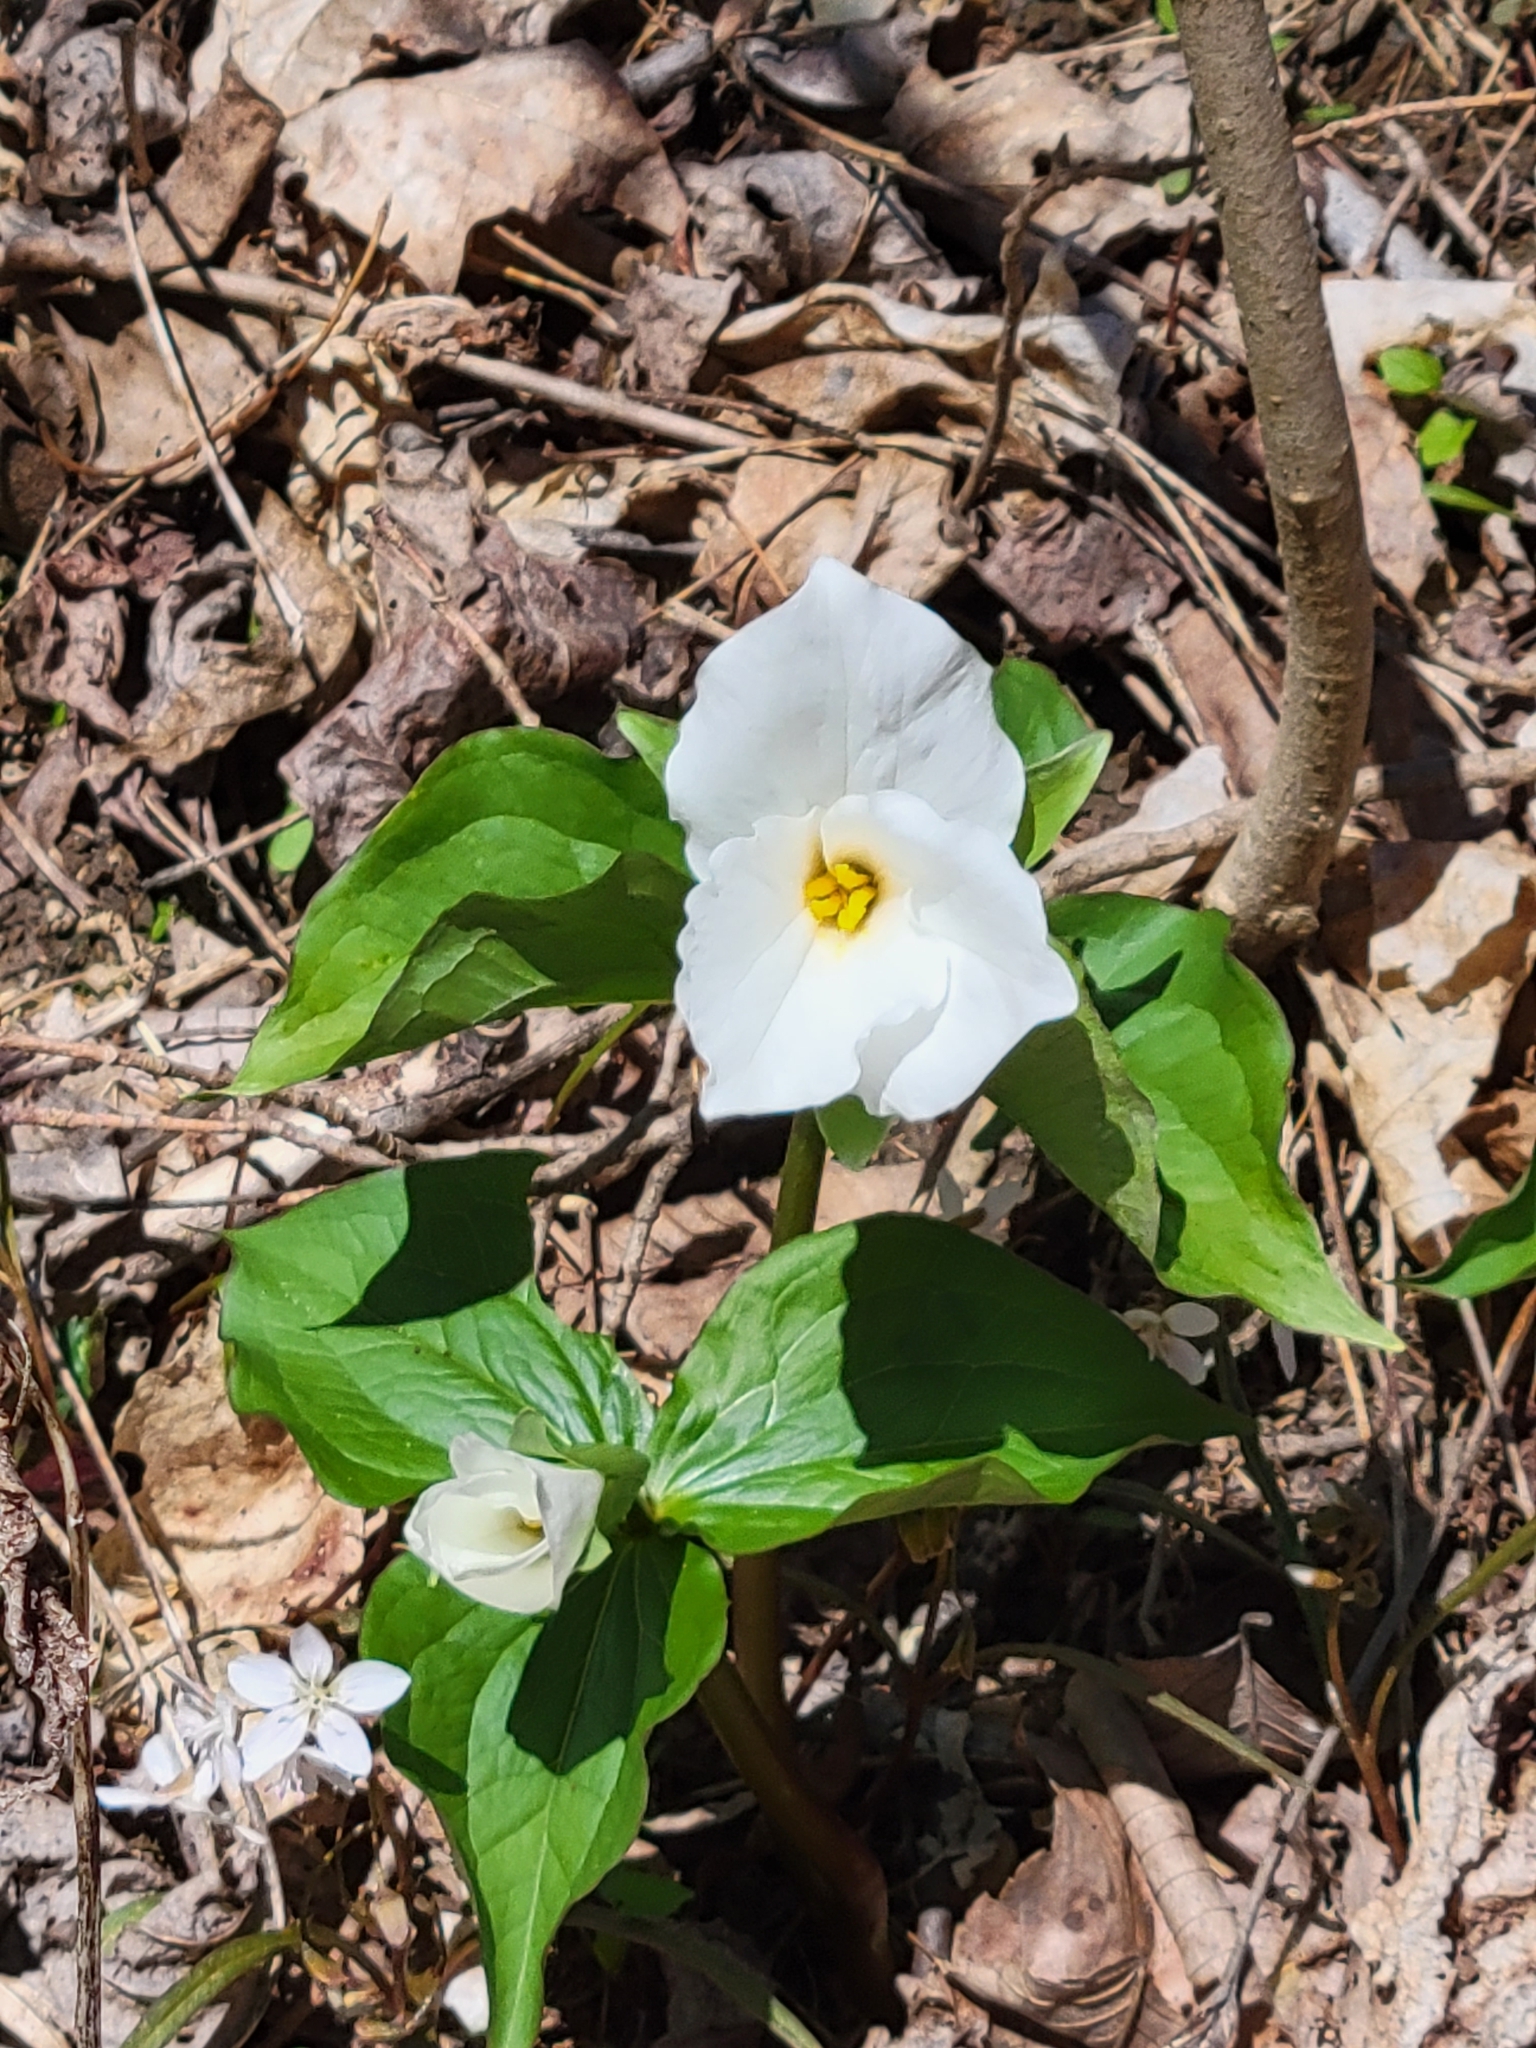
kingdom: Plantae
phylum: Tracheophyta
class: Liliopsida
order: Liliales
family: Melanthiaceae
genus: Trillium
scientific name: Trillium grandiflorum
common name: Great white trillium
